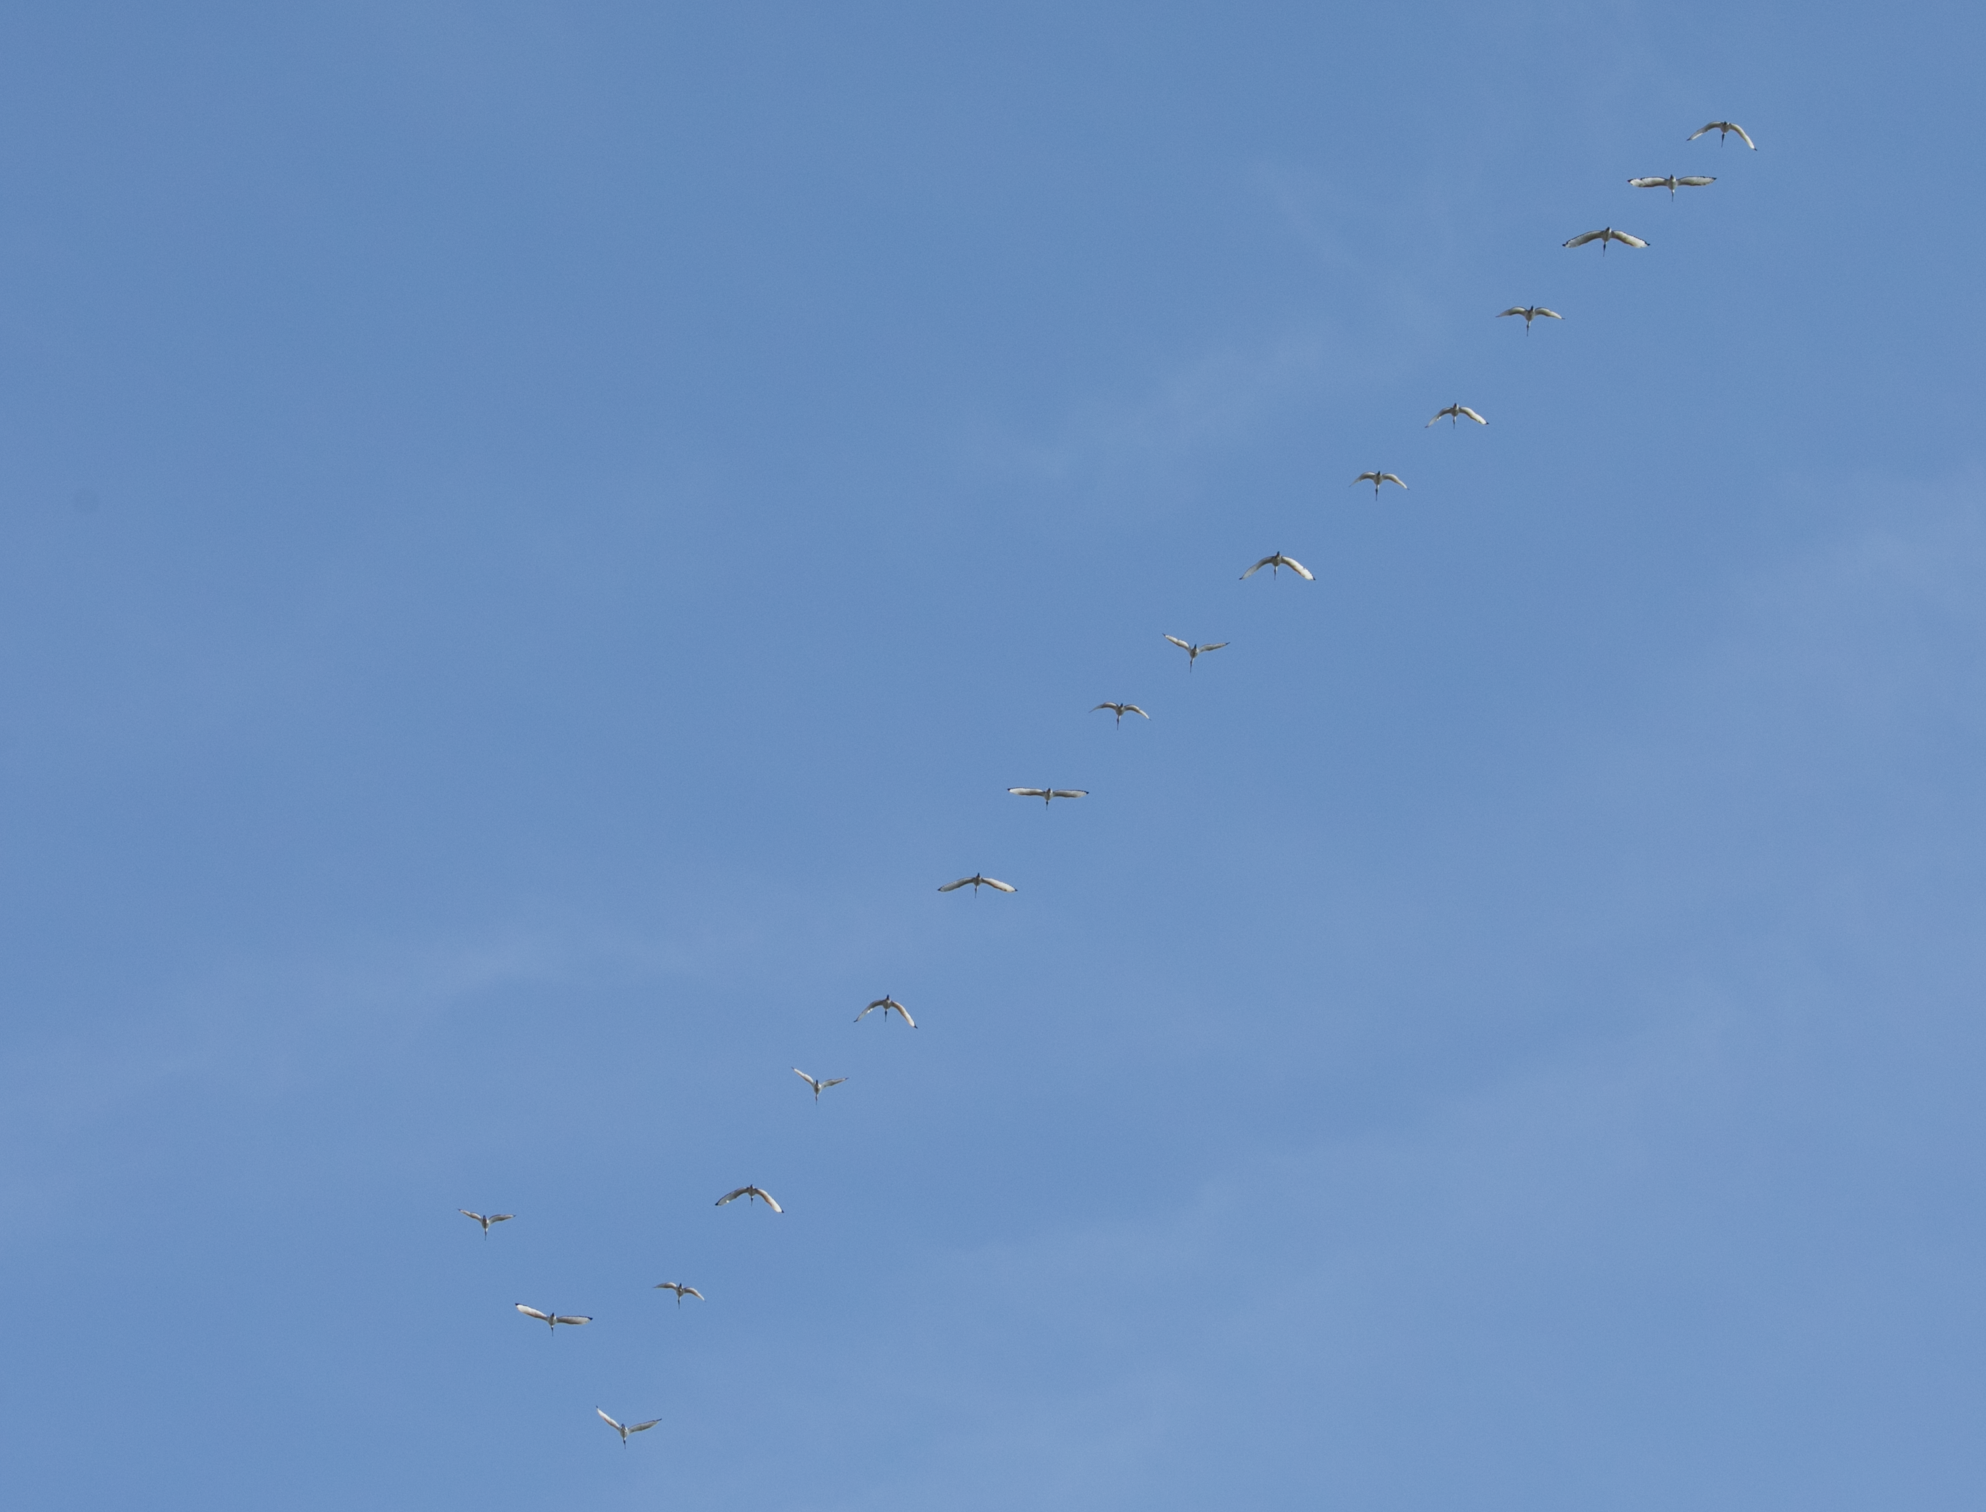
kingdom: Animalia
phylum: Chordata
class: Aves
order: Pelecaniformes
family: Threskiornithidae
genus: Threskiornis
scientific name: Threskiornis aethiopicus
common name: Sacred ibis
